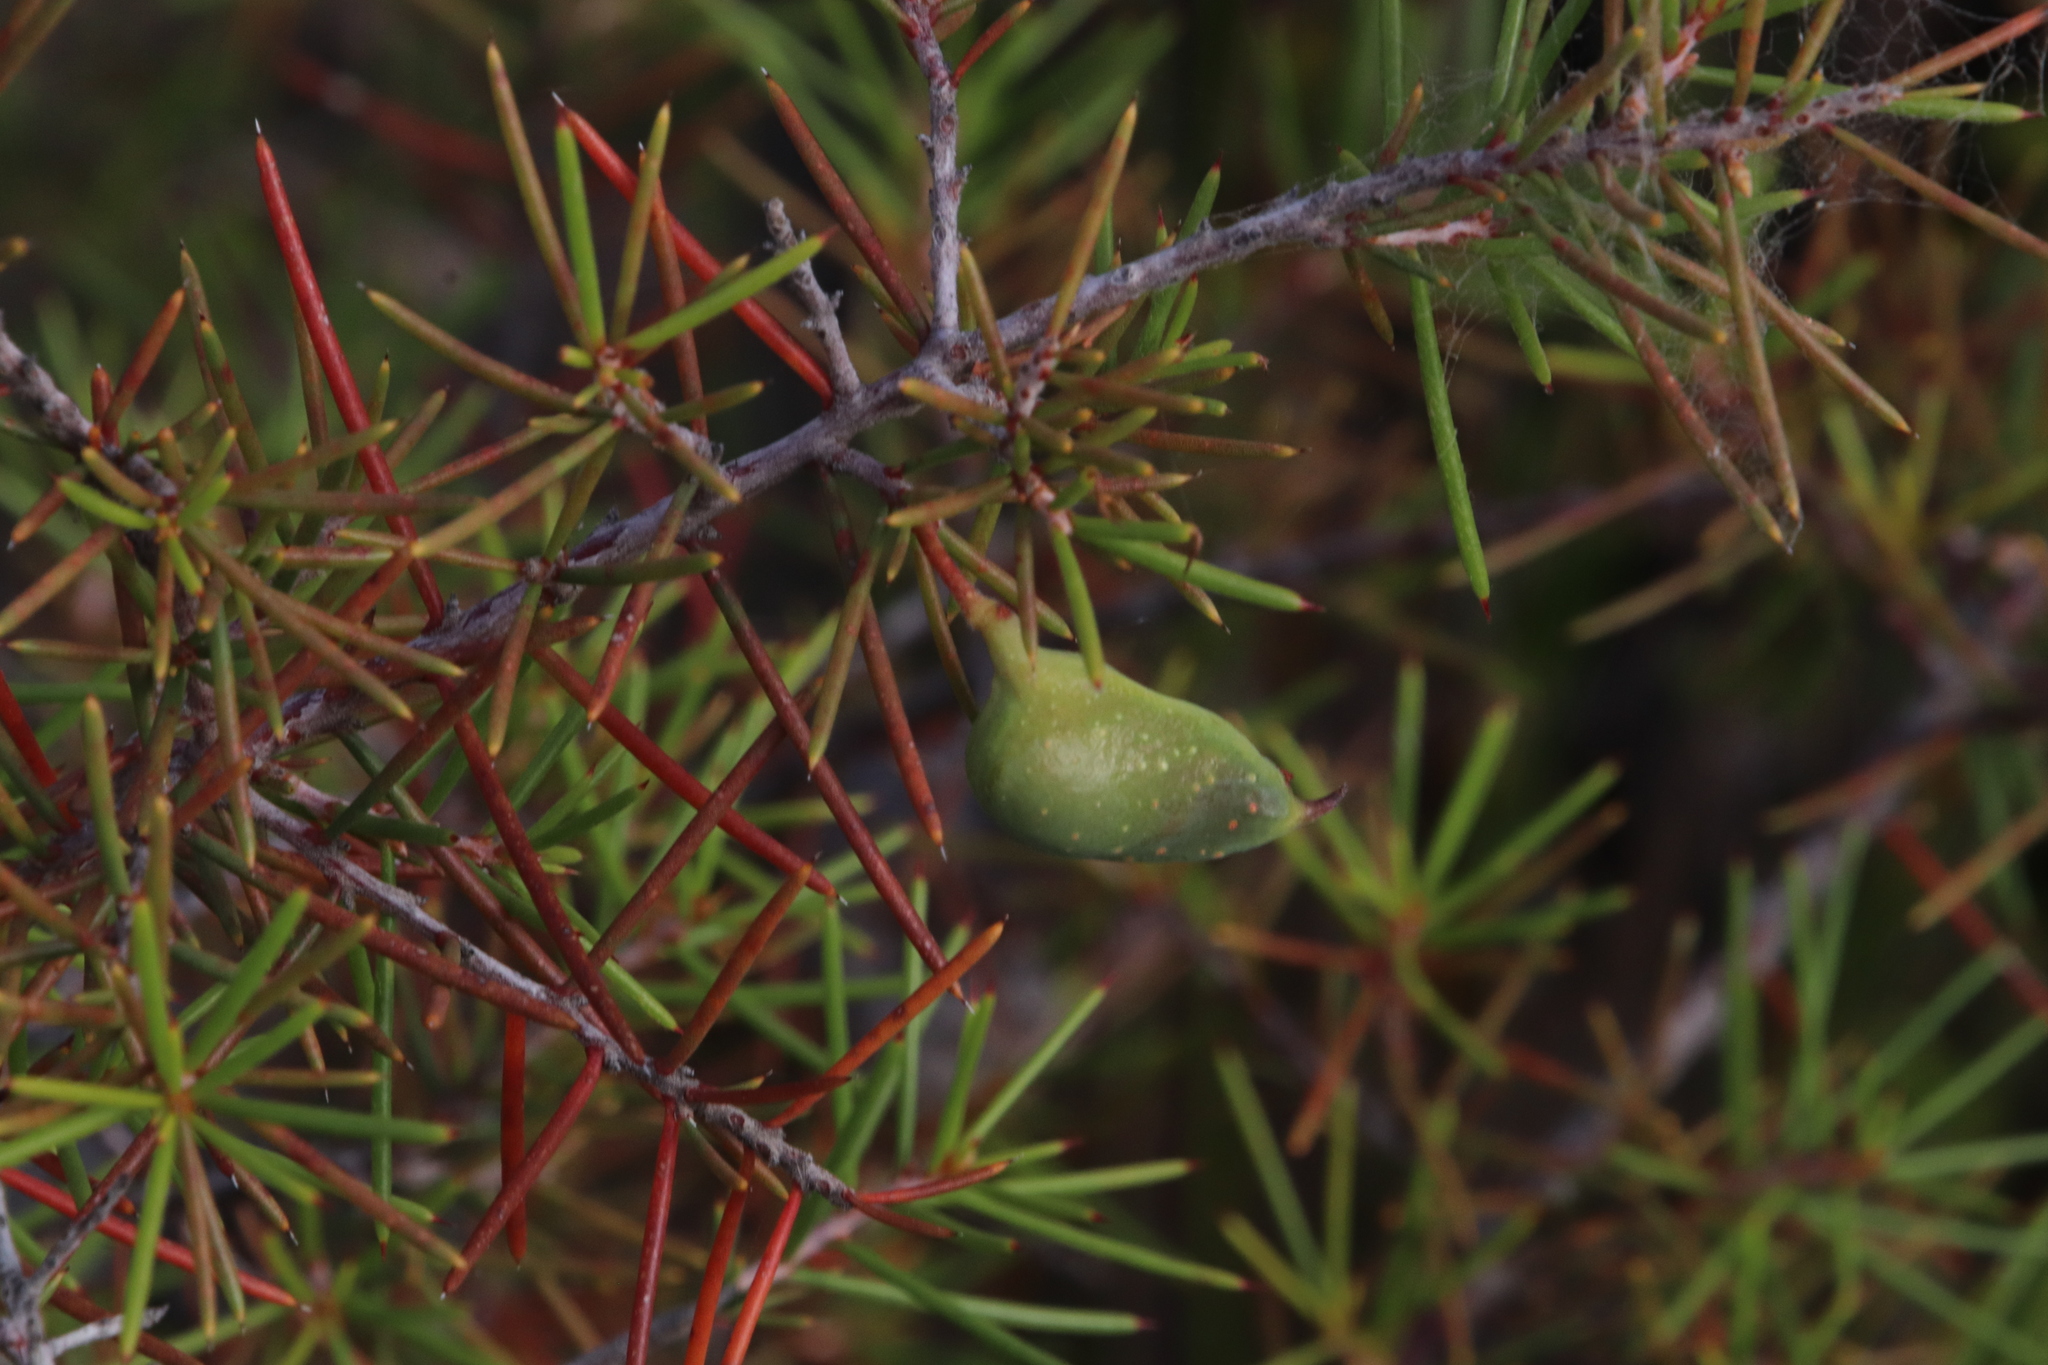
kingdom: Plantae
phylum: Tracheophyta
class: Magnoliopsida
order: Proteales
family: Proteaceae
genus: Hakea
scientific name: Hakea sericea
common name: Needle bush
